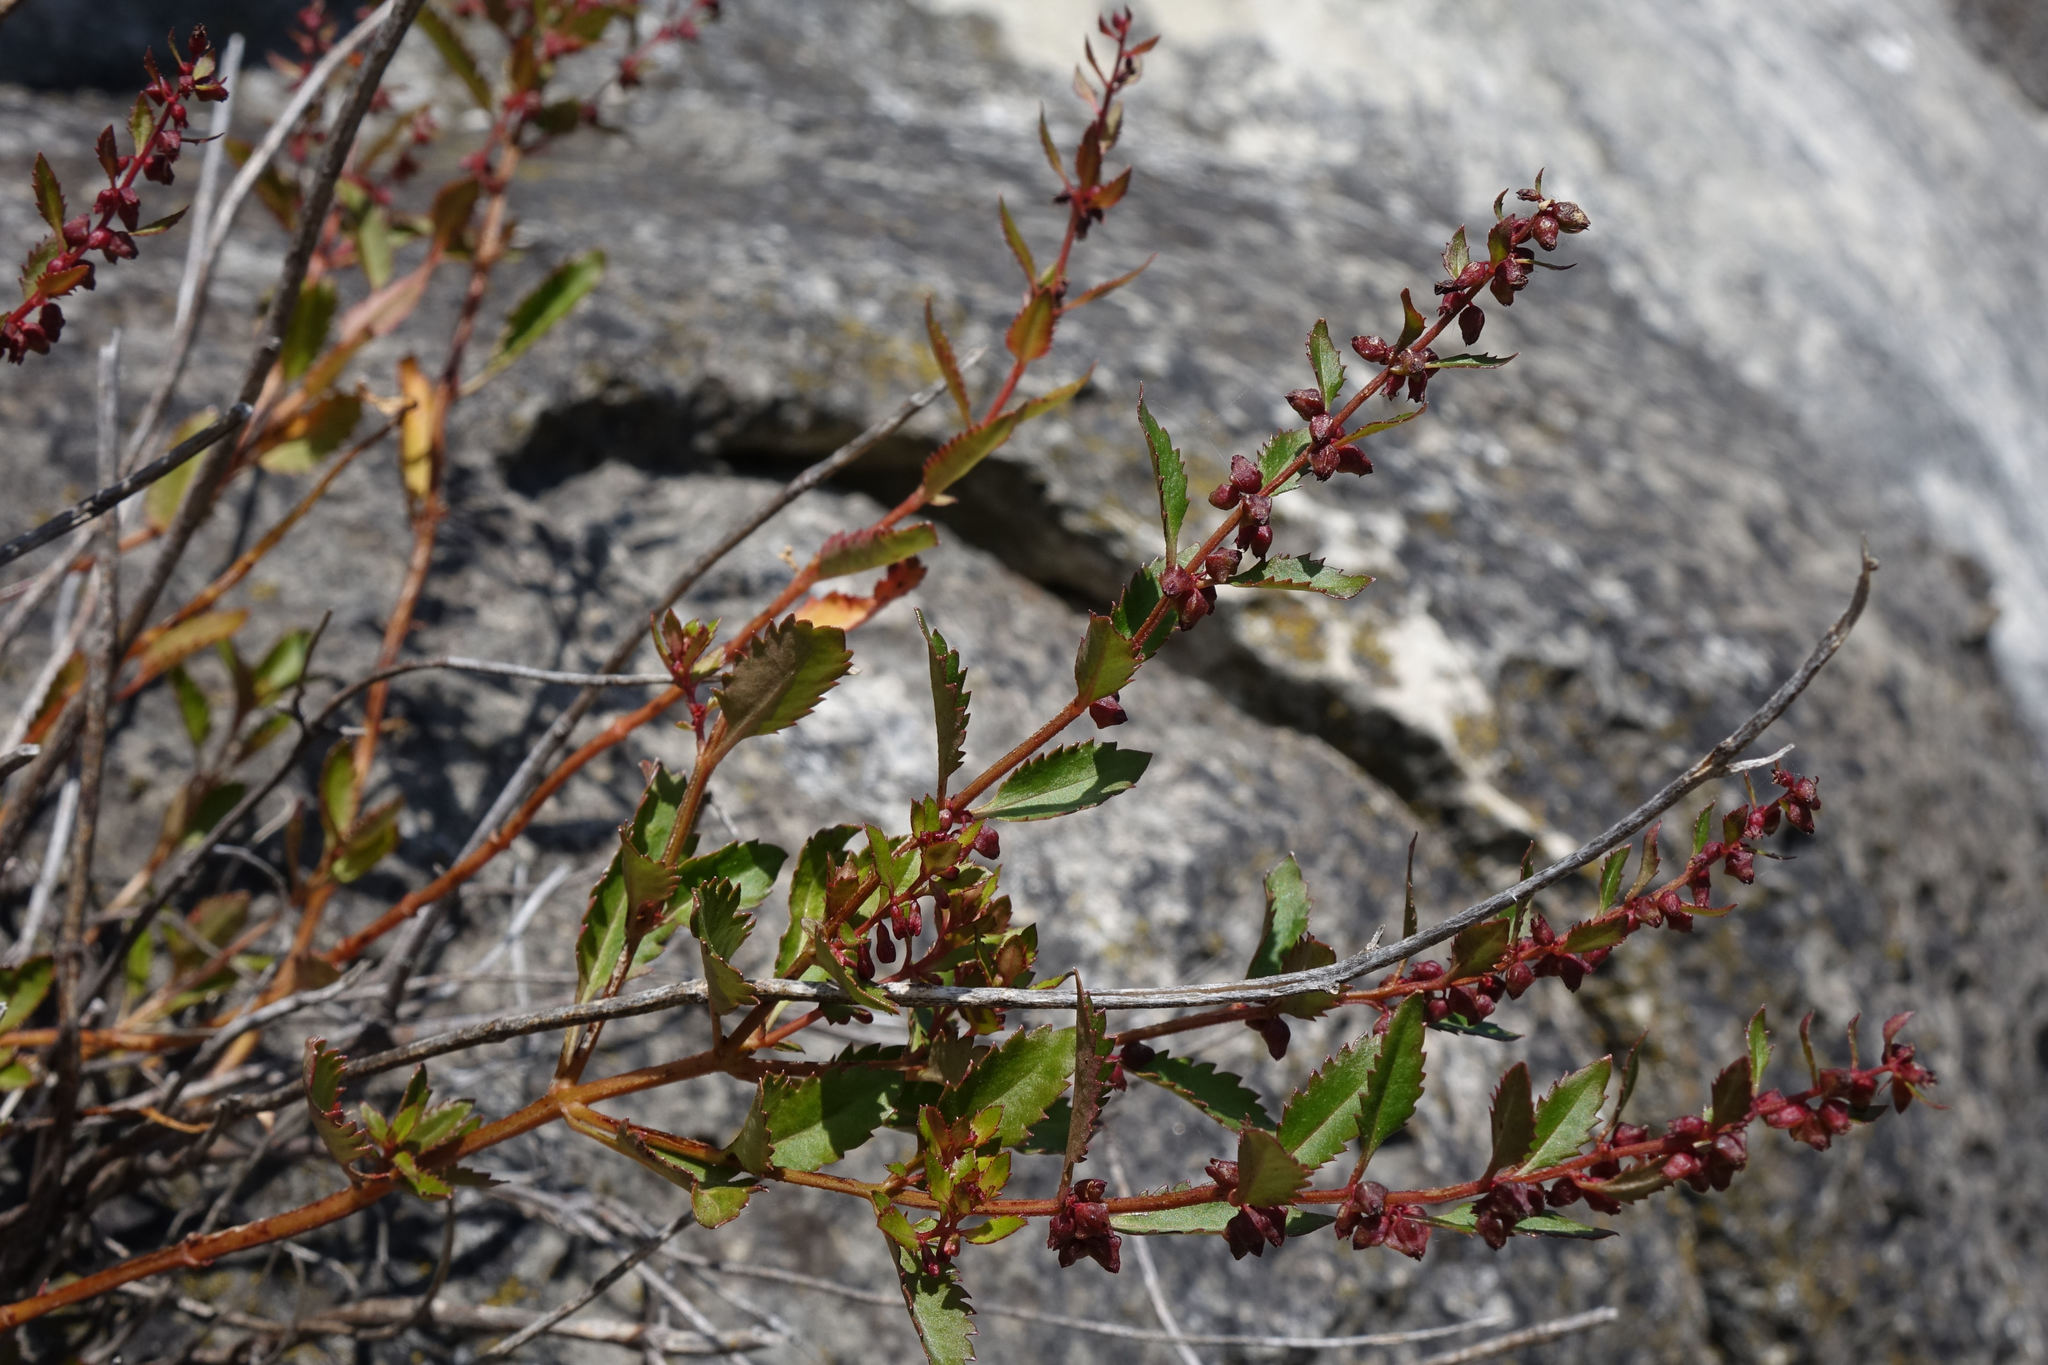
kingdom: Plantae
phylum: Tracheophyta
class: Magnoliopsida
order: Saxifragales
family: Haloragaceae
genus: Haloragis
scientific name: Haloragis erecta
